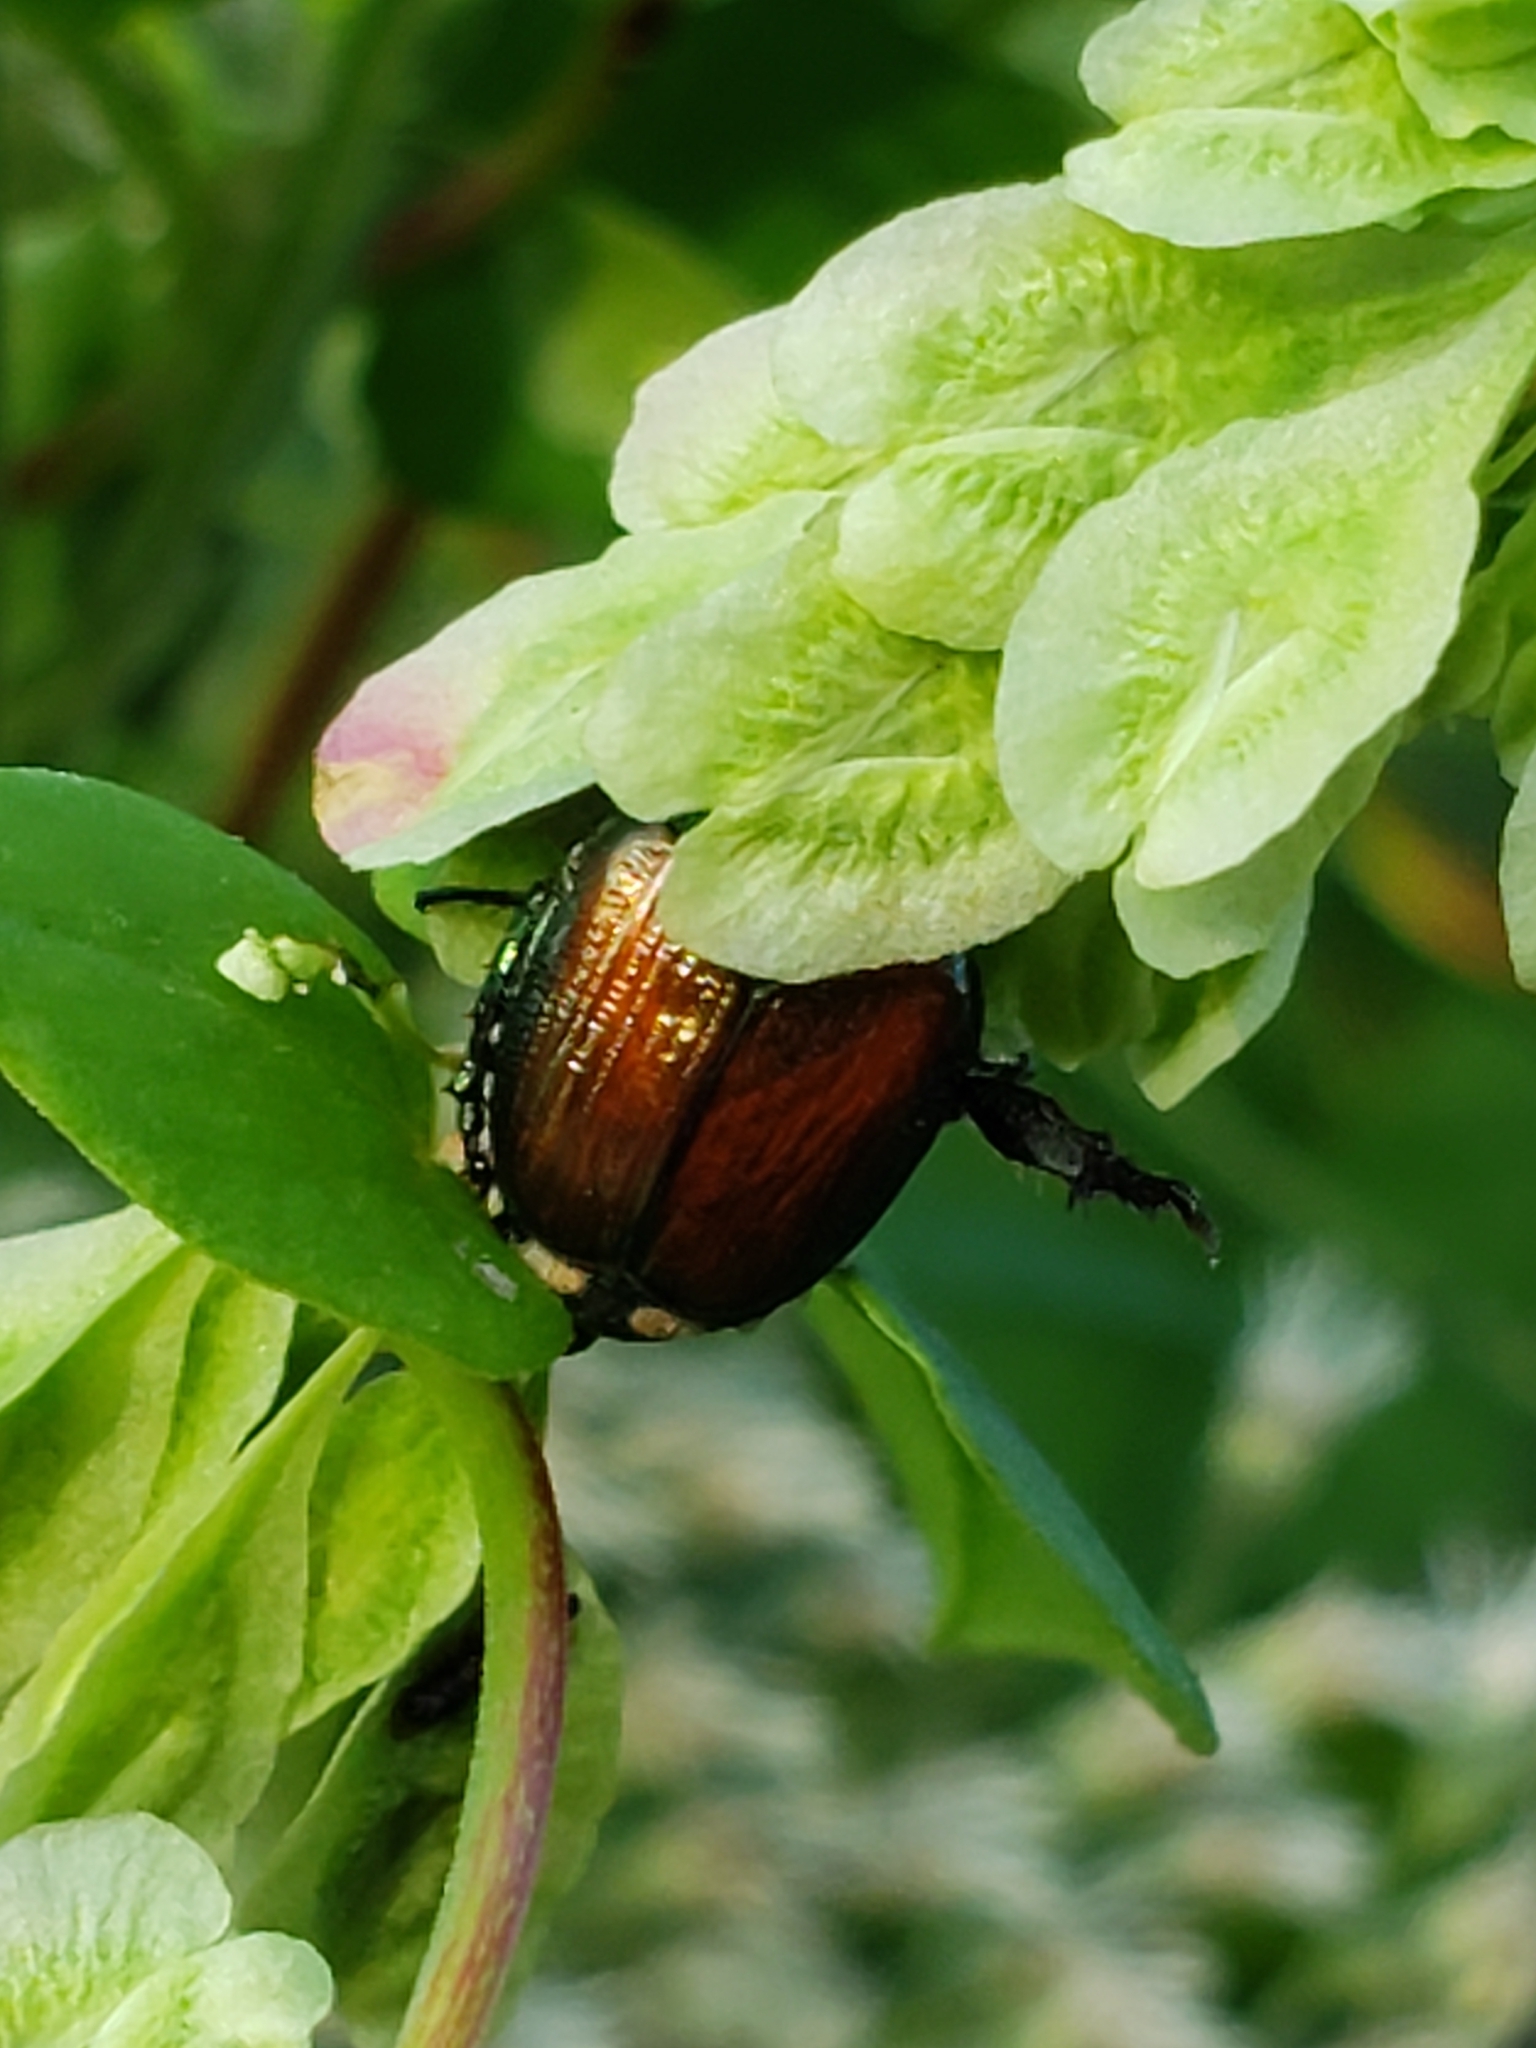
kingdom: Animalia
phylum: Arthropoda
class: Insecta
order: Coleoptera
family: Scarabaeidae
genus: Popillia
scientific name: Popillia japonica
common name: Japanese beetle
